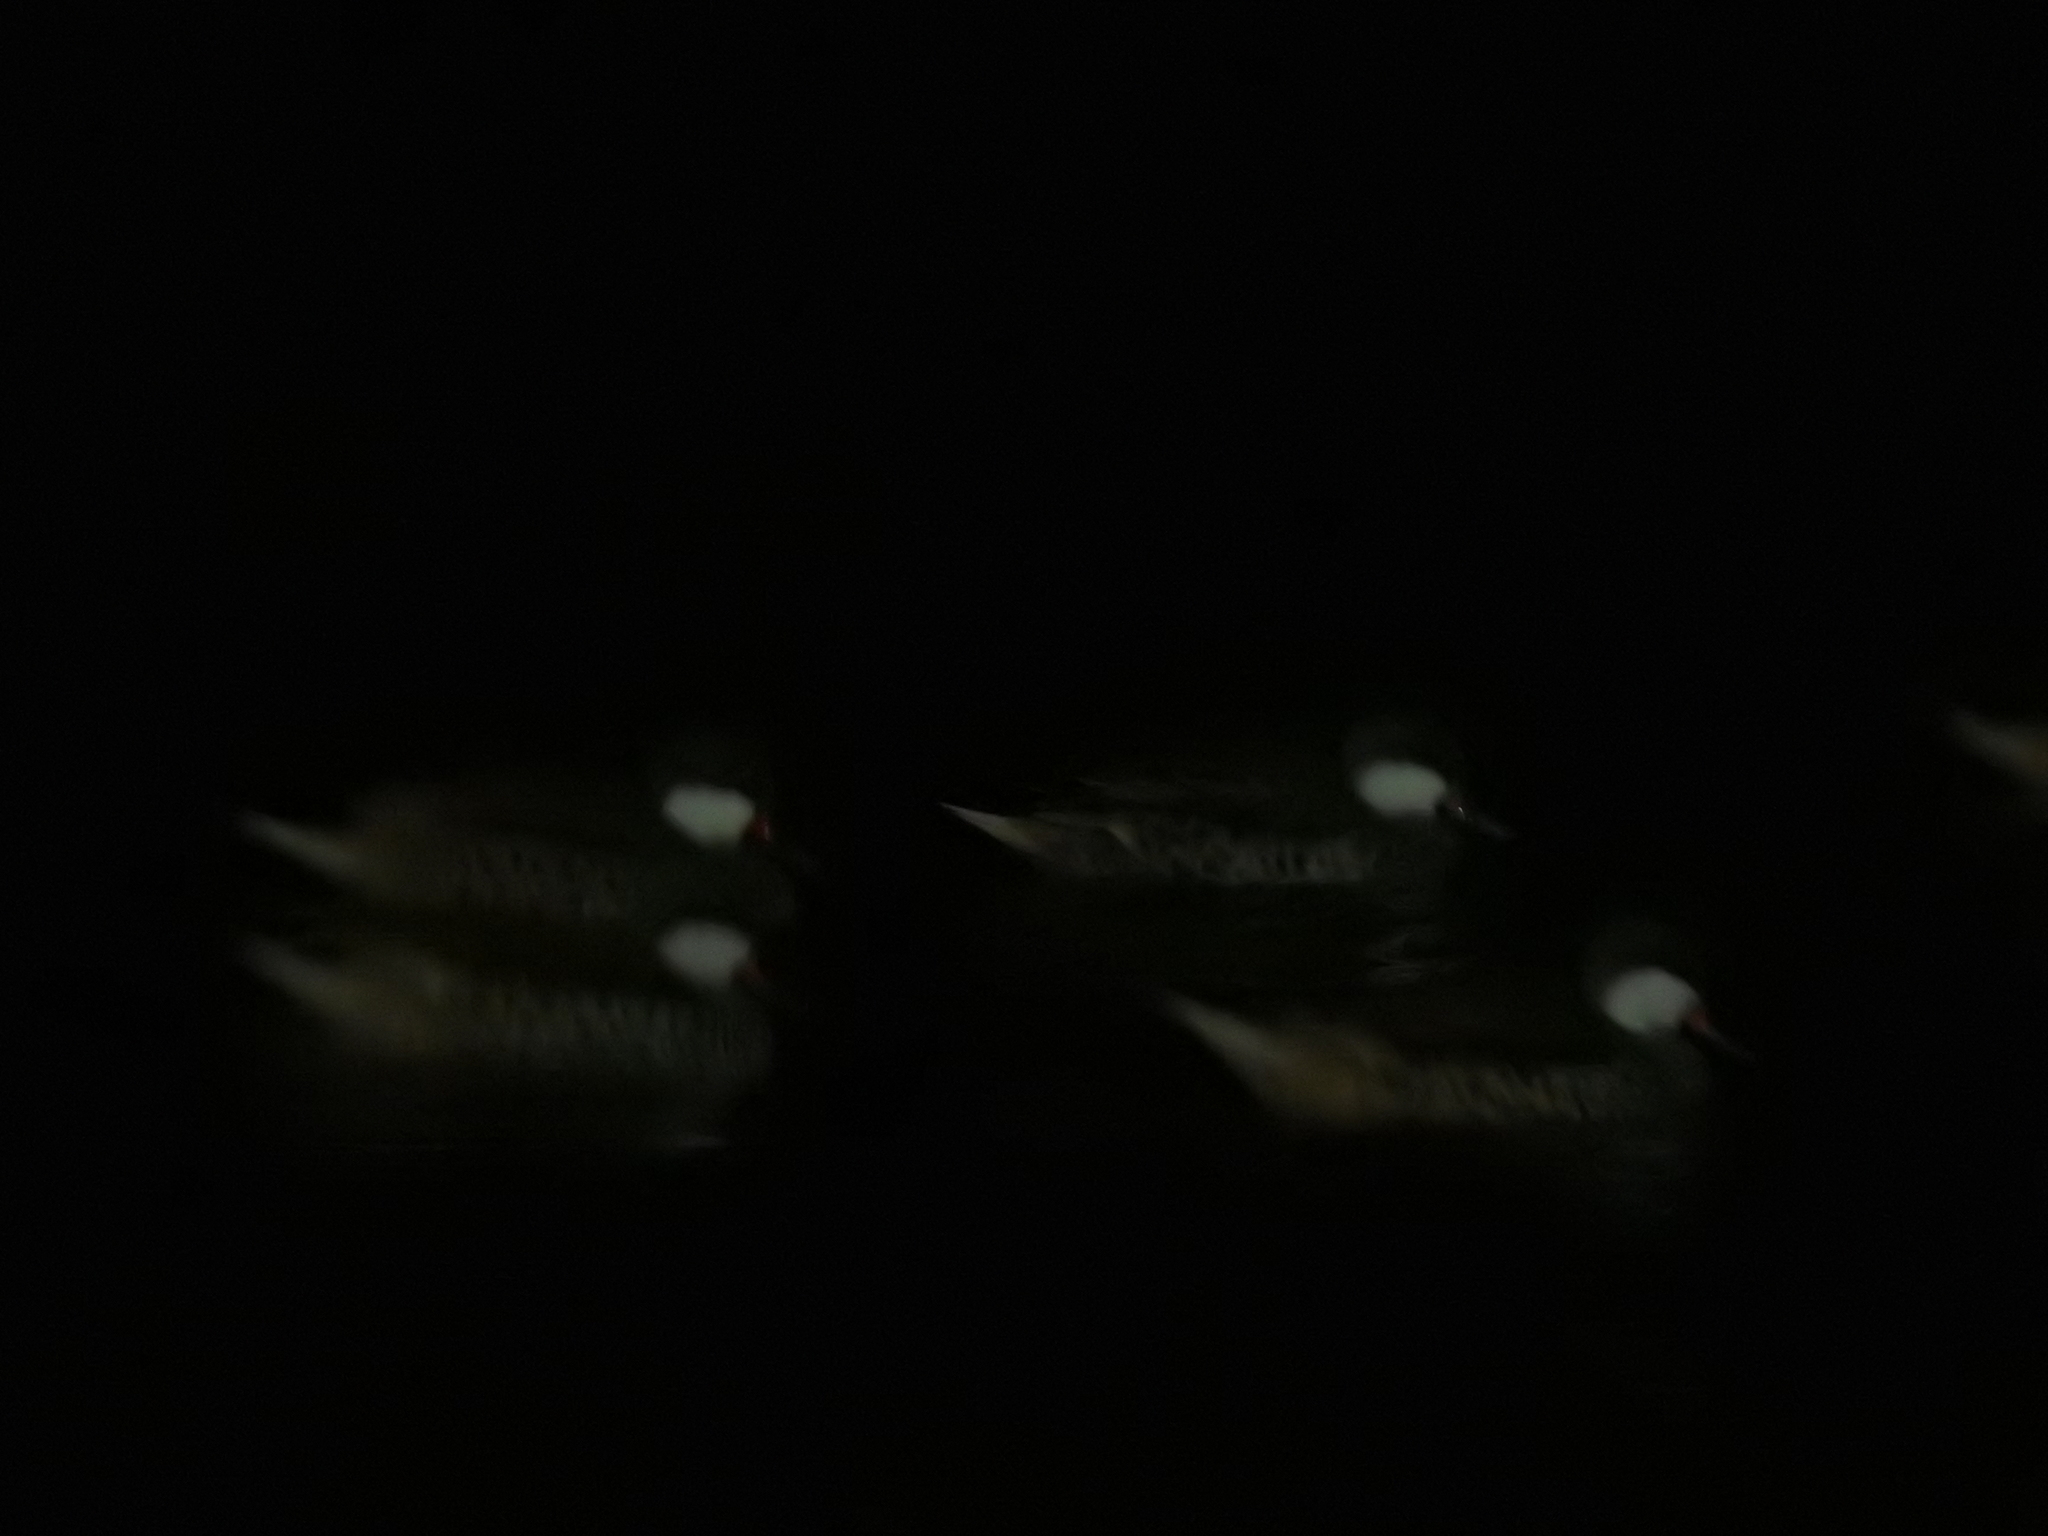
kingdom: Animalia
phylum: Chordata
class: Aves
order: Anseriformes
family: Anatidae
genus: Anas
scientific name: Anas bahamensis
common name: White-cheeked pintail
